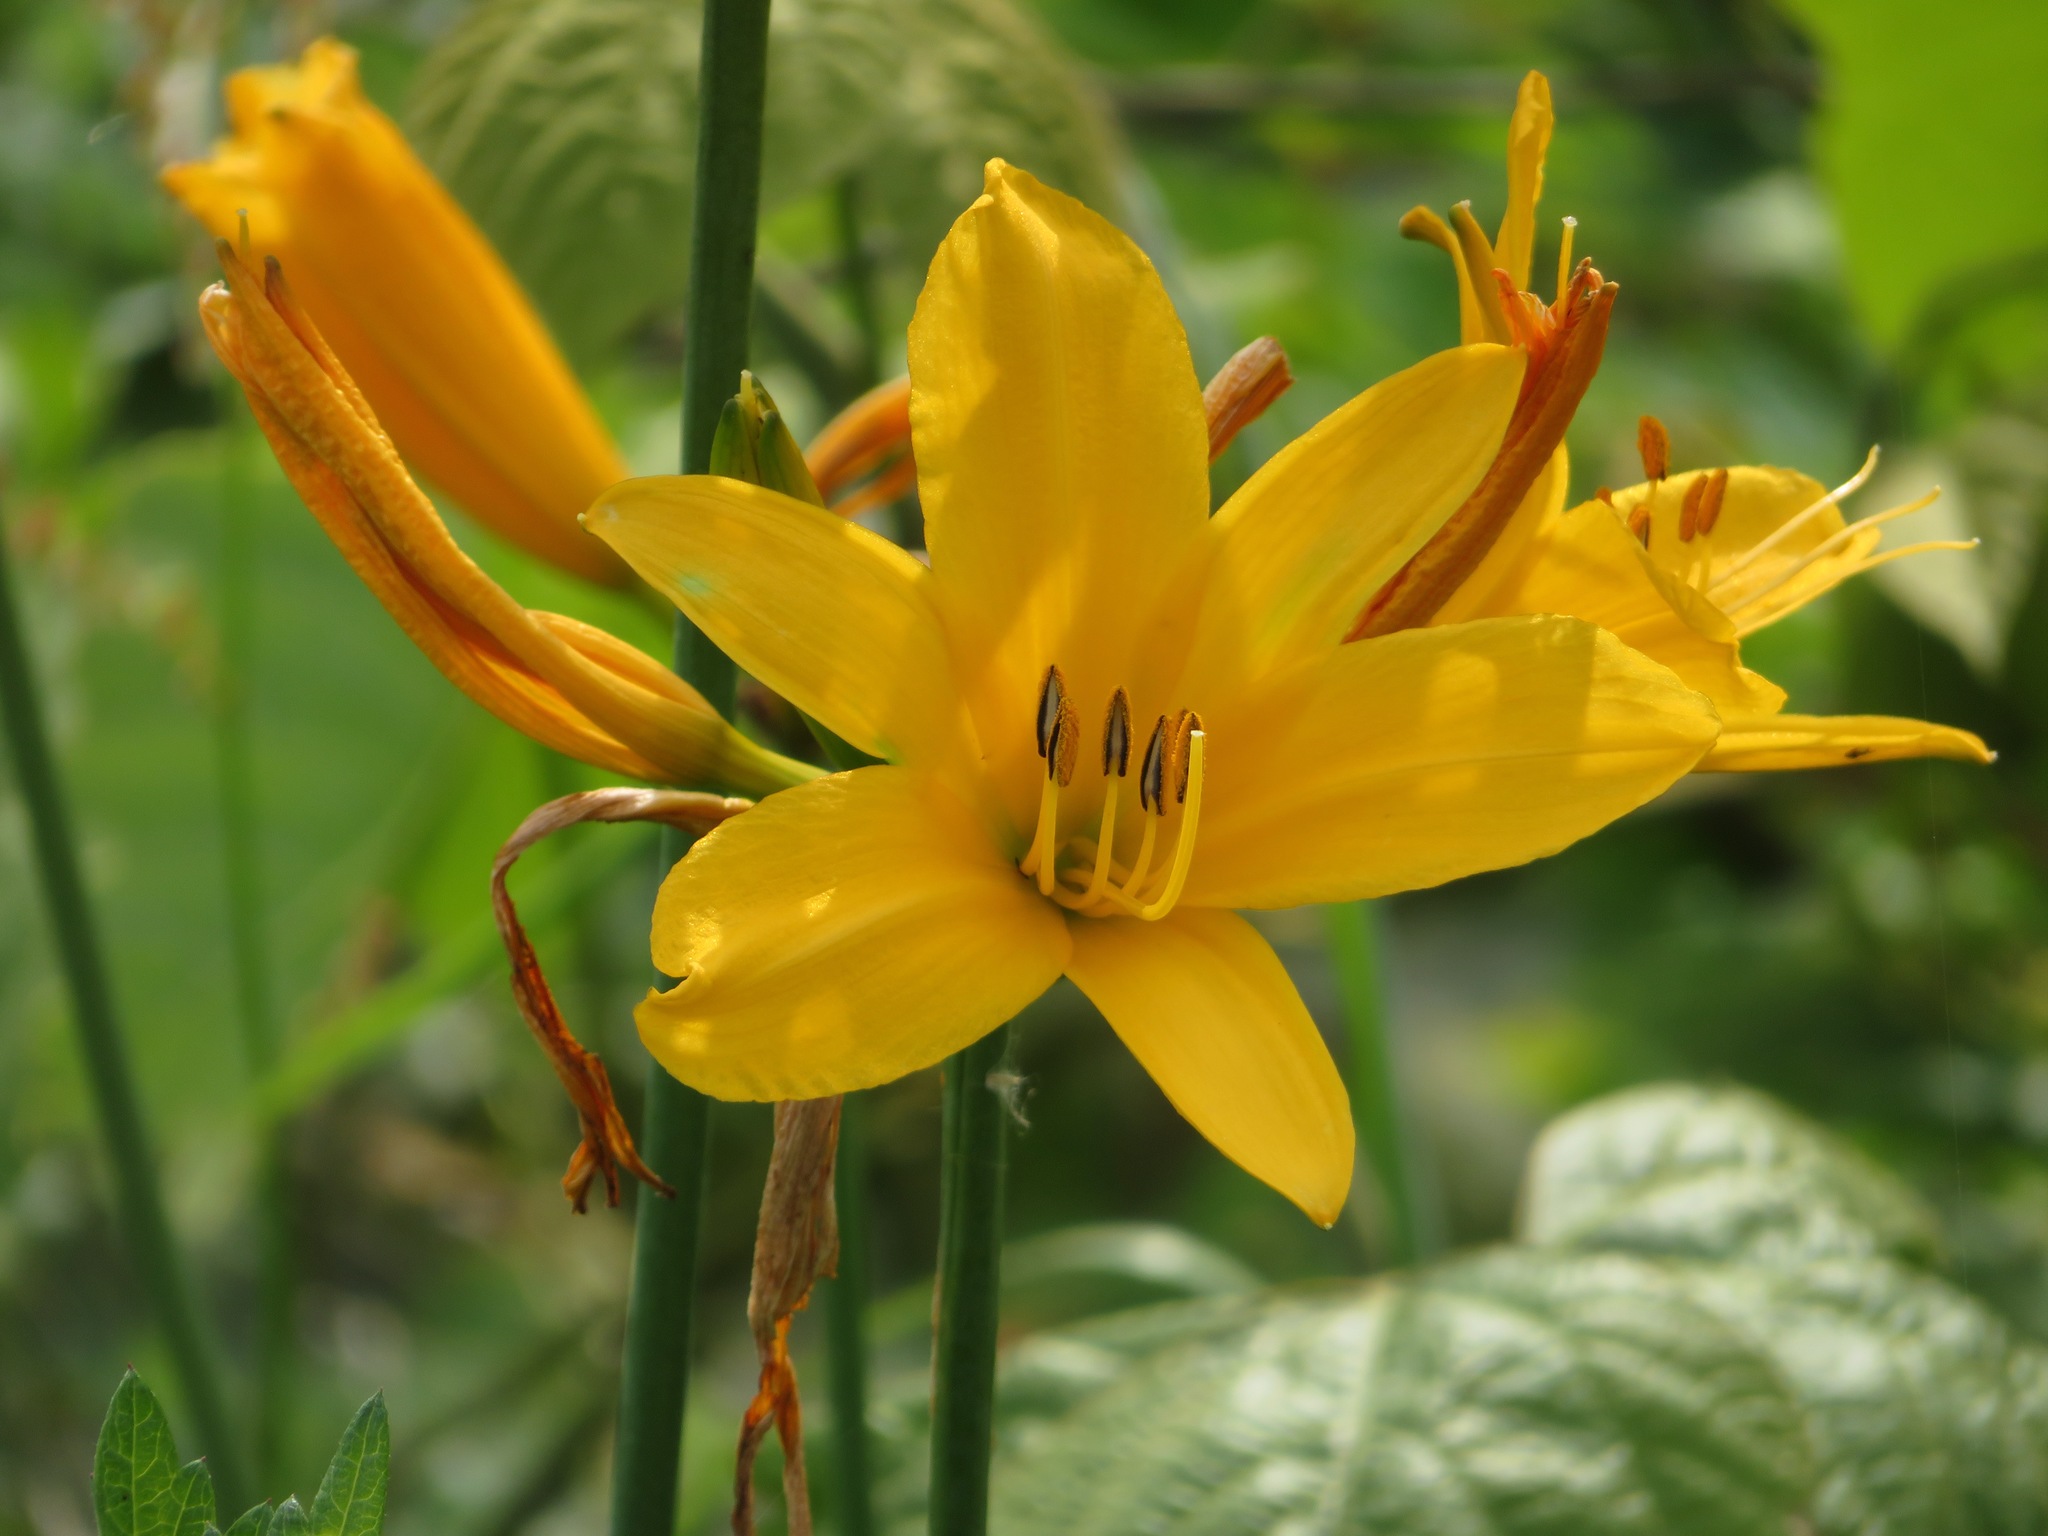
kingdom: Plantae
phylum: Tracheophyta
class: Liliopsida
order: Asparagales
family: Asphodelaceae
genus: Hemerocallis
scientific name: Hemerocallis dumortieri
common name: Dumortier's day-lily
